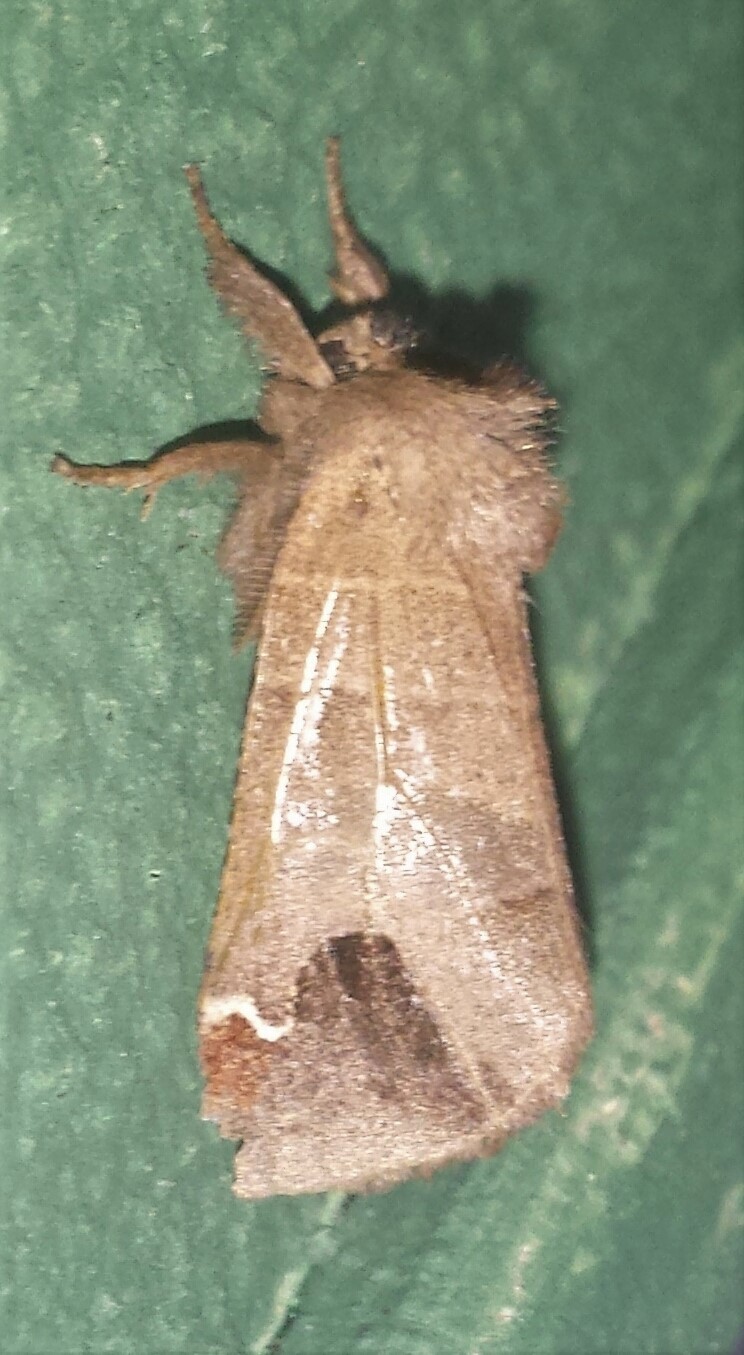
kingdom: Animalia
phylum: Arthropoda
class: Insecta
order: Lepidoptera
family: Notodontidae
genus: Clostera
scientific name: Clostera albosigma
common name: Sigmoid prominent
